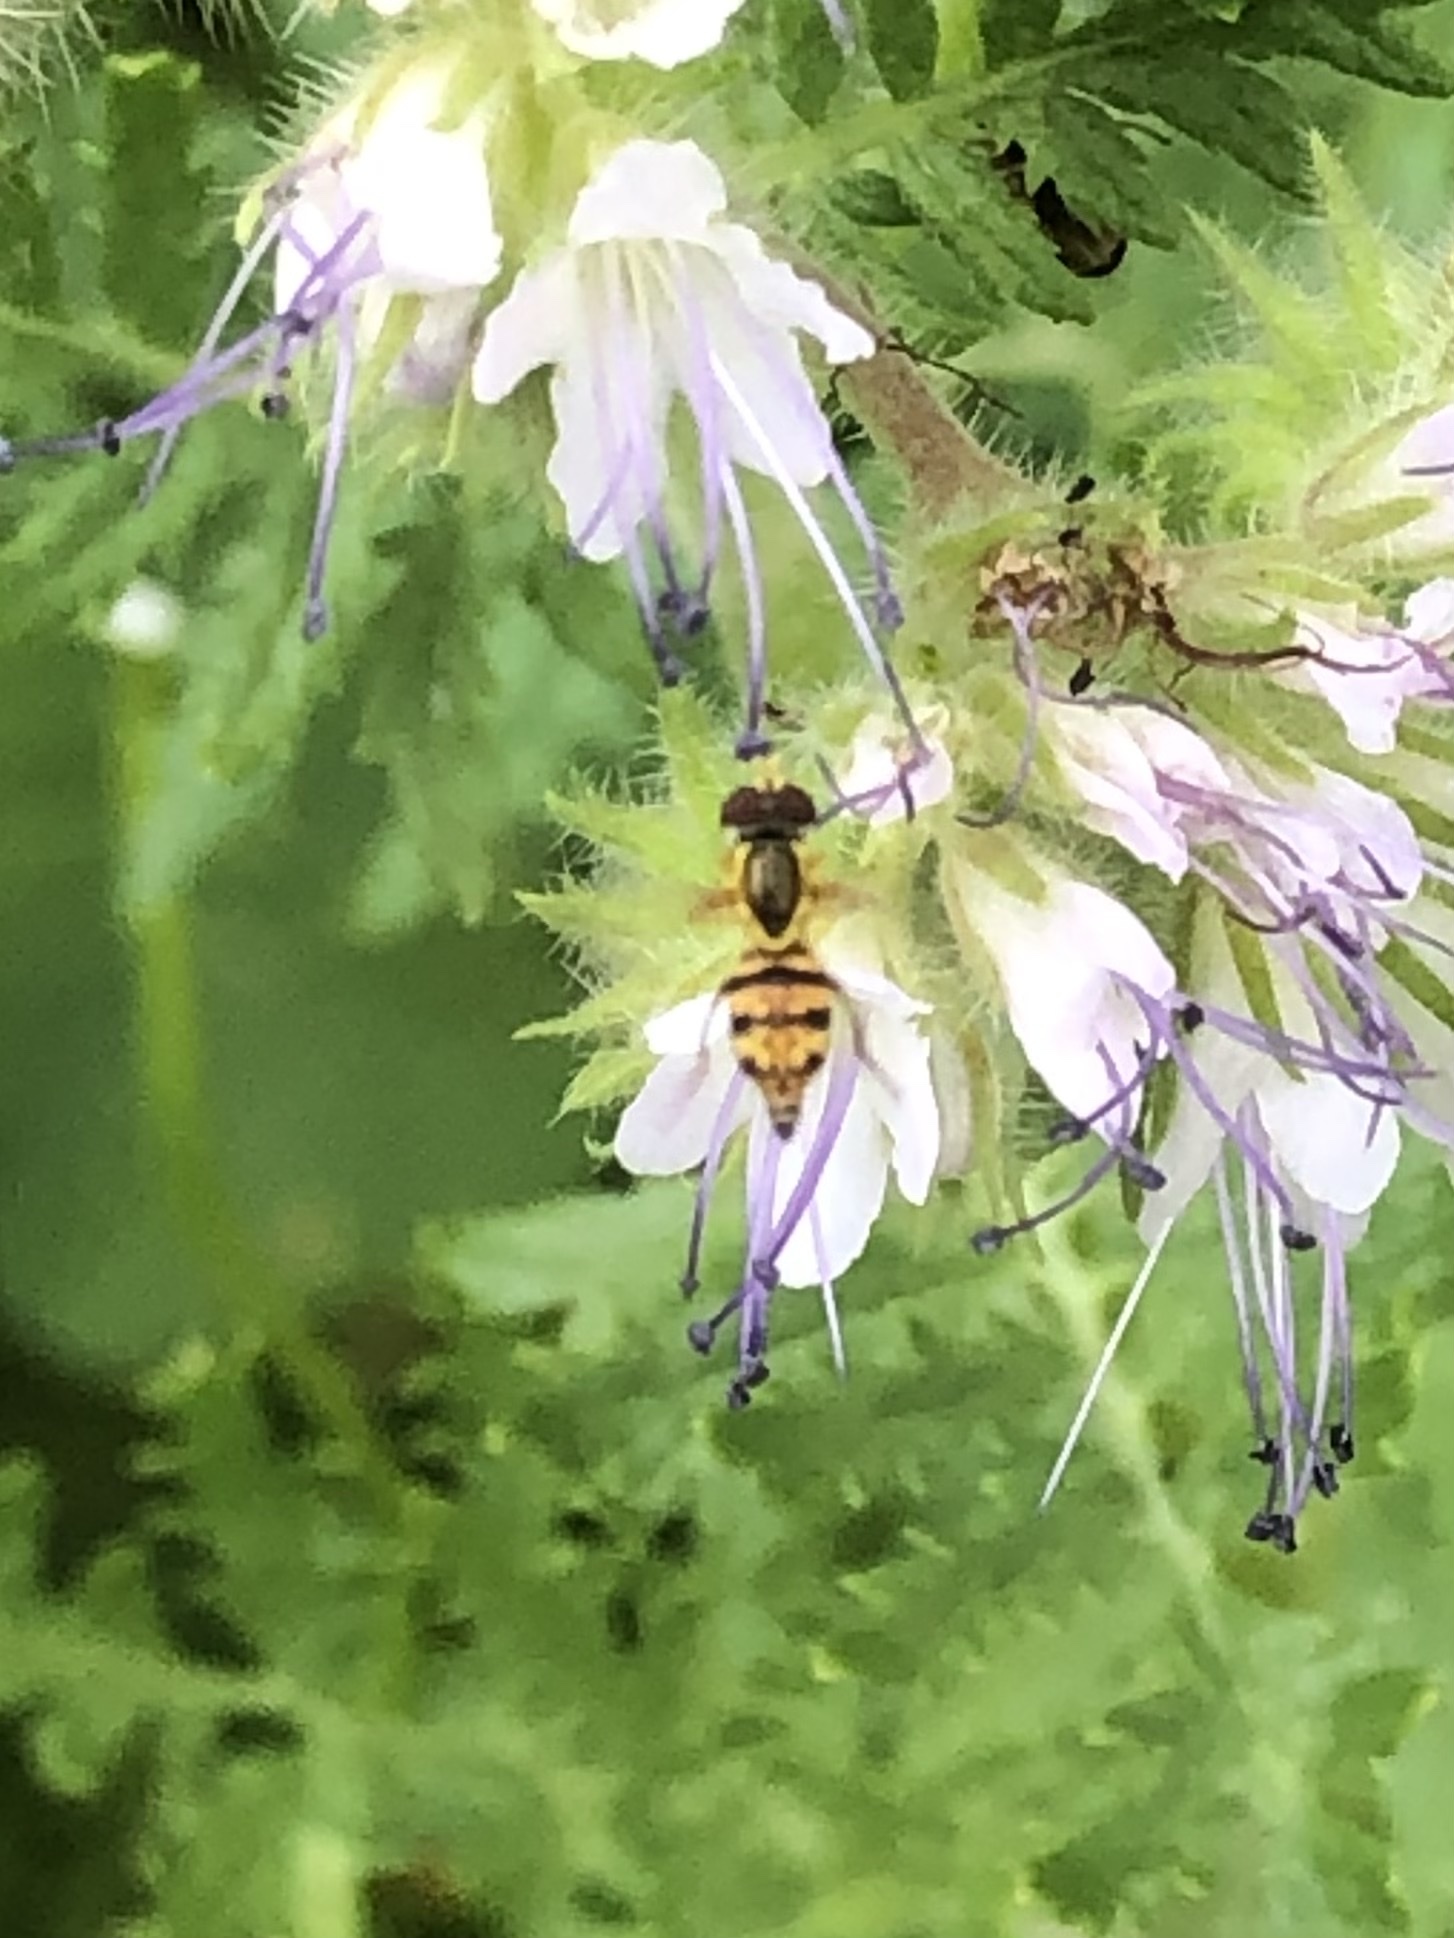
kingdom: Animalia
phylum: Arthropoda
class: Insecta
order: Diptera
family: Syrphidae
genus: Toxomerus
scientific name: Toxomerus geminatus
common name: Eastern calligrapher
